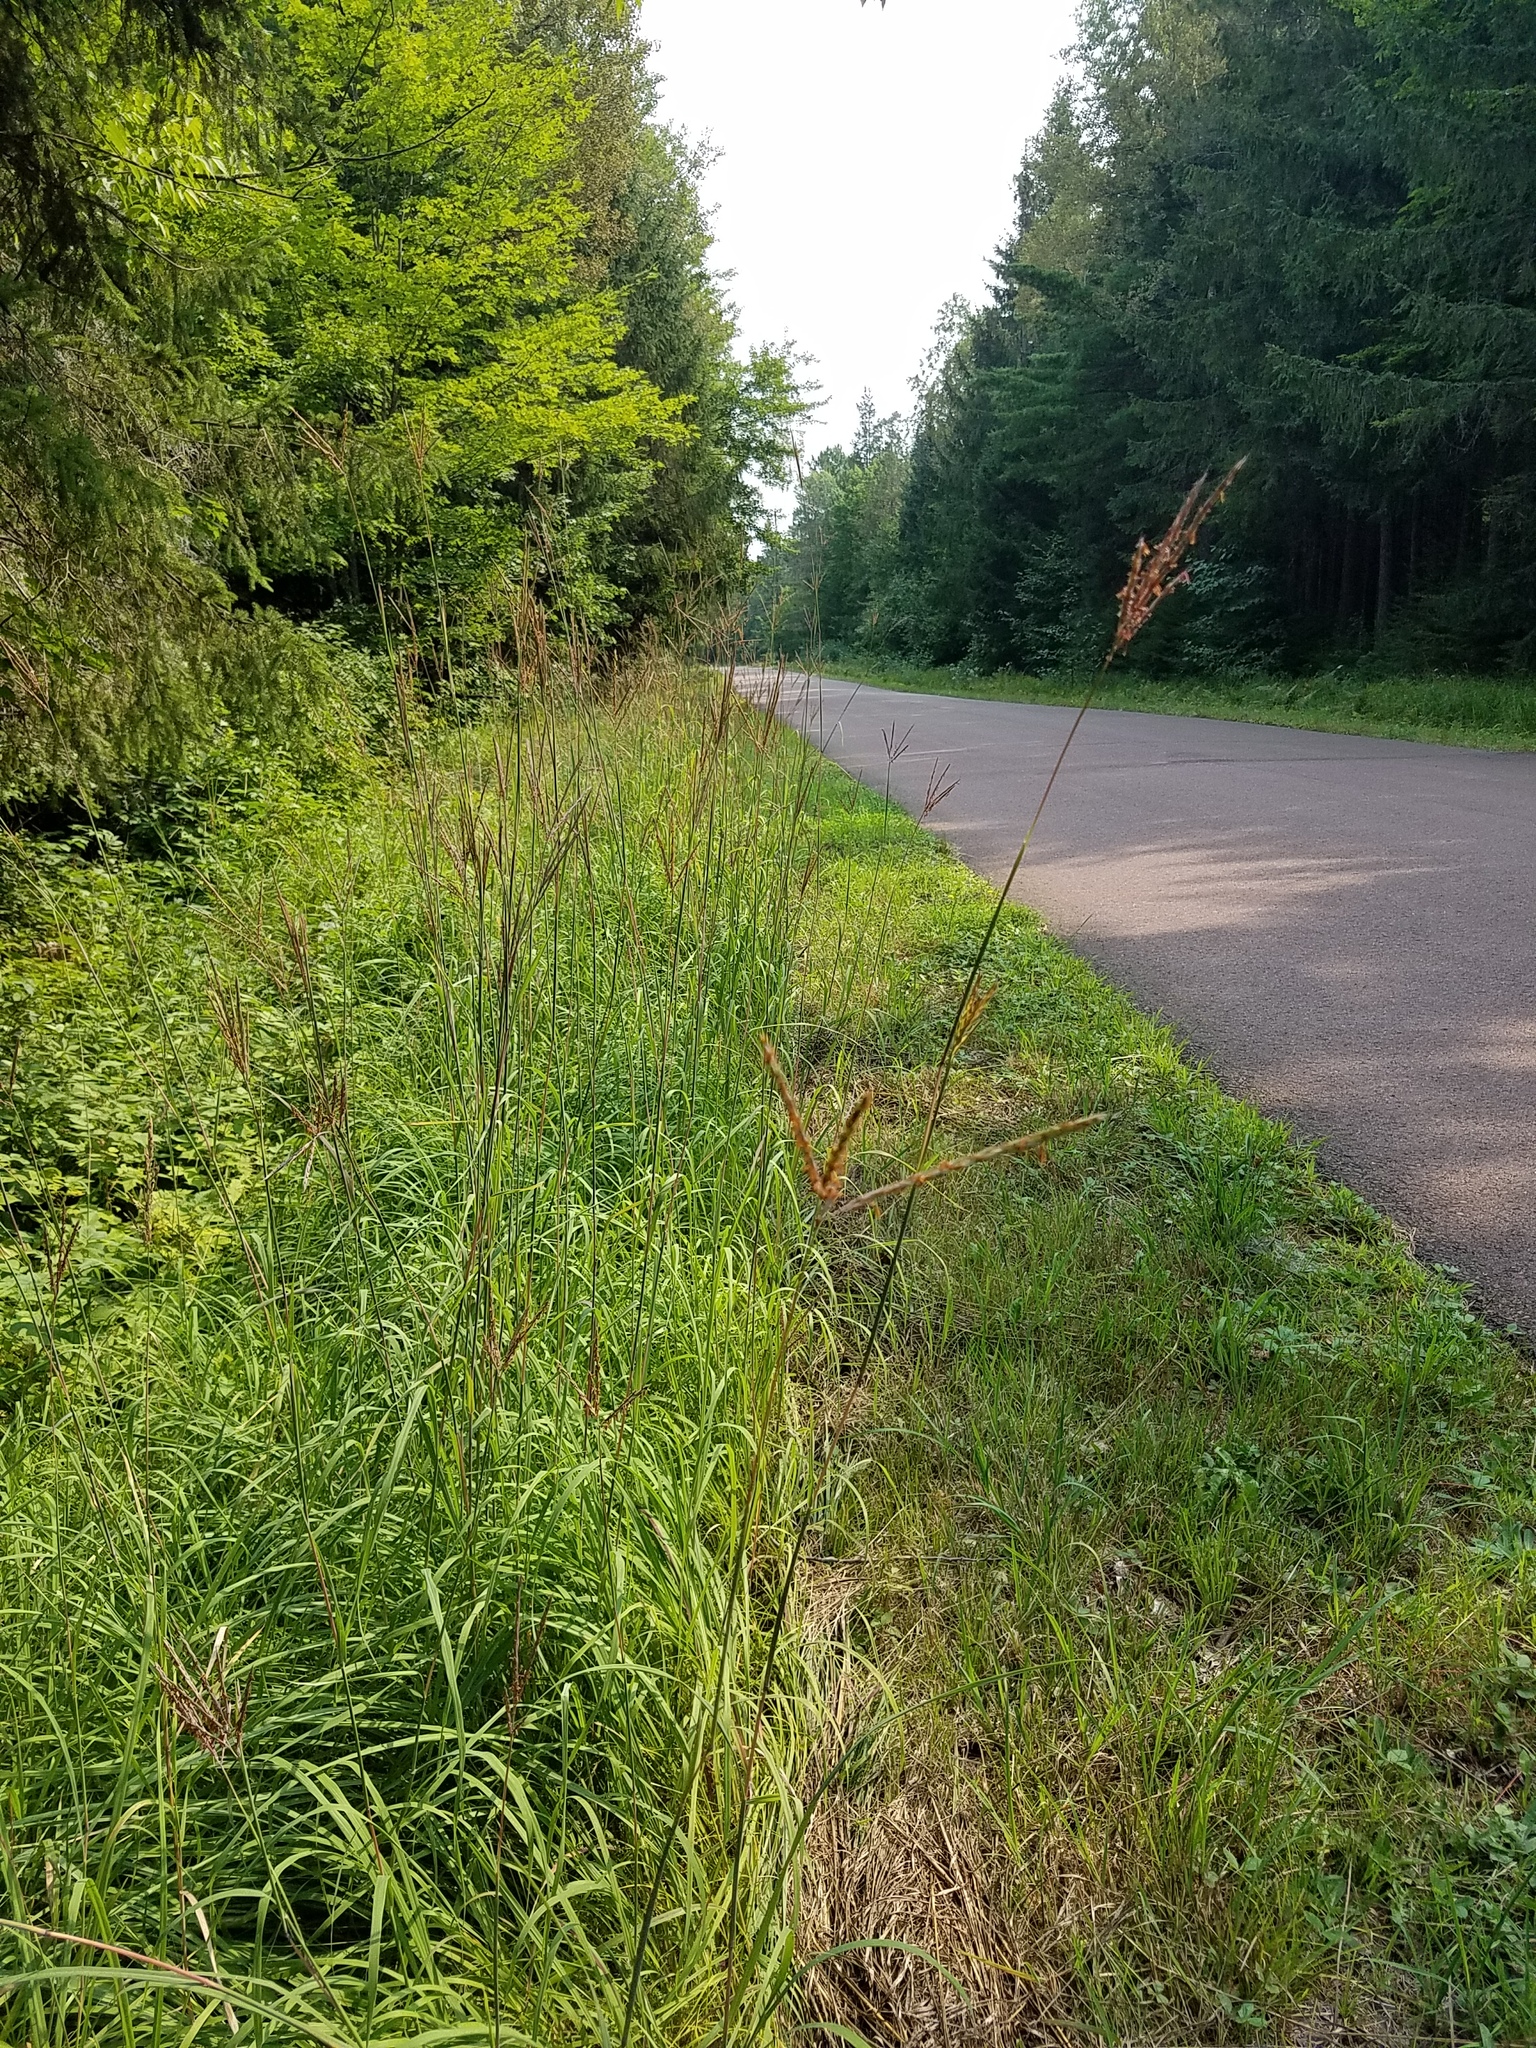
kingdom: Plantae
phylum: Tracheophyta
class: Liliopsida
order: Poales
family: Poaceae
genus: Andropogon
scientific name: Andropogon gerardi
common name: Big bluestem
